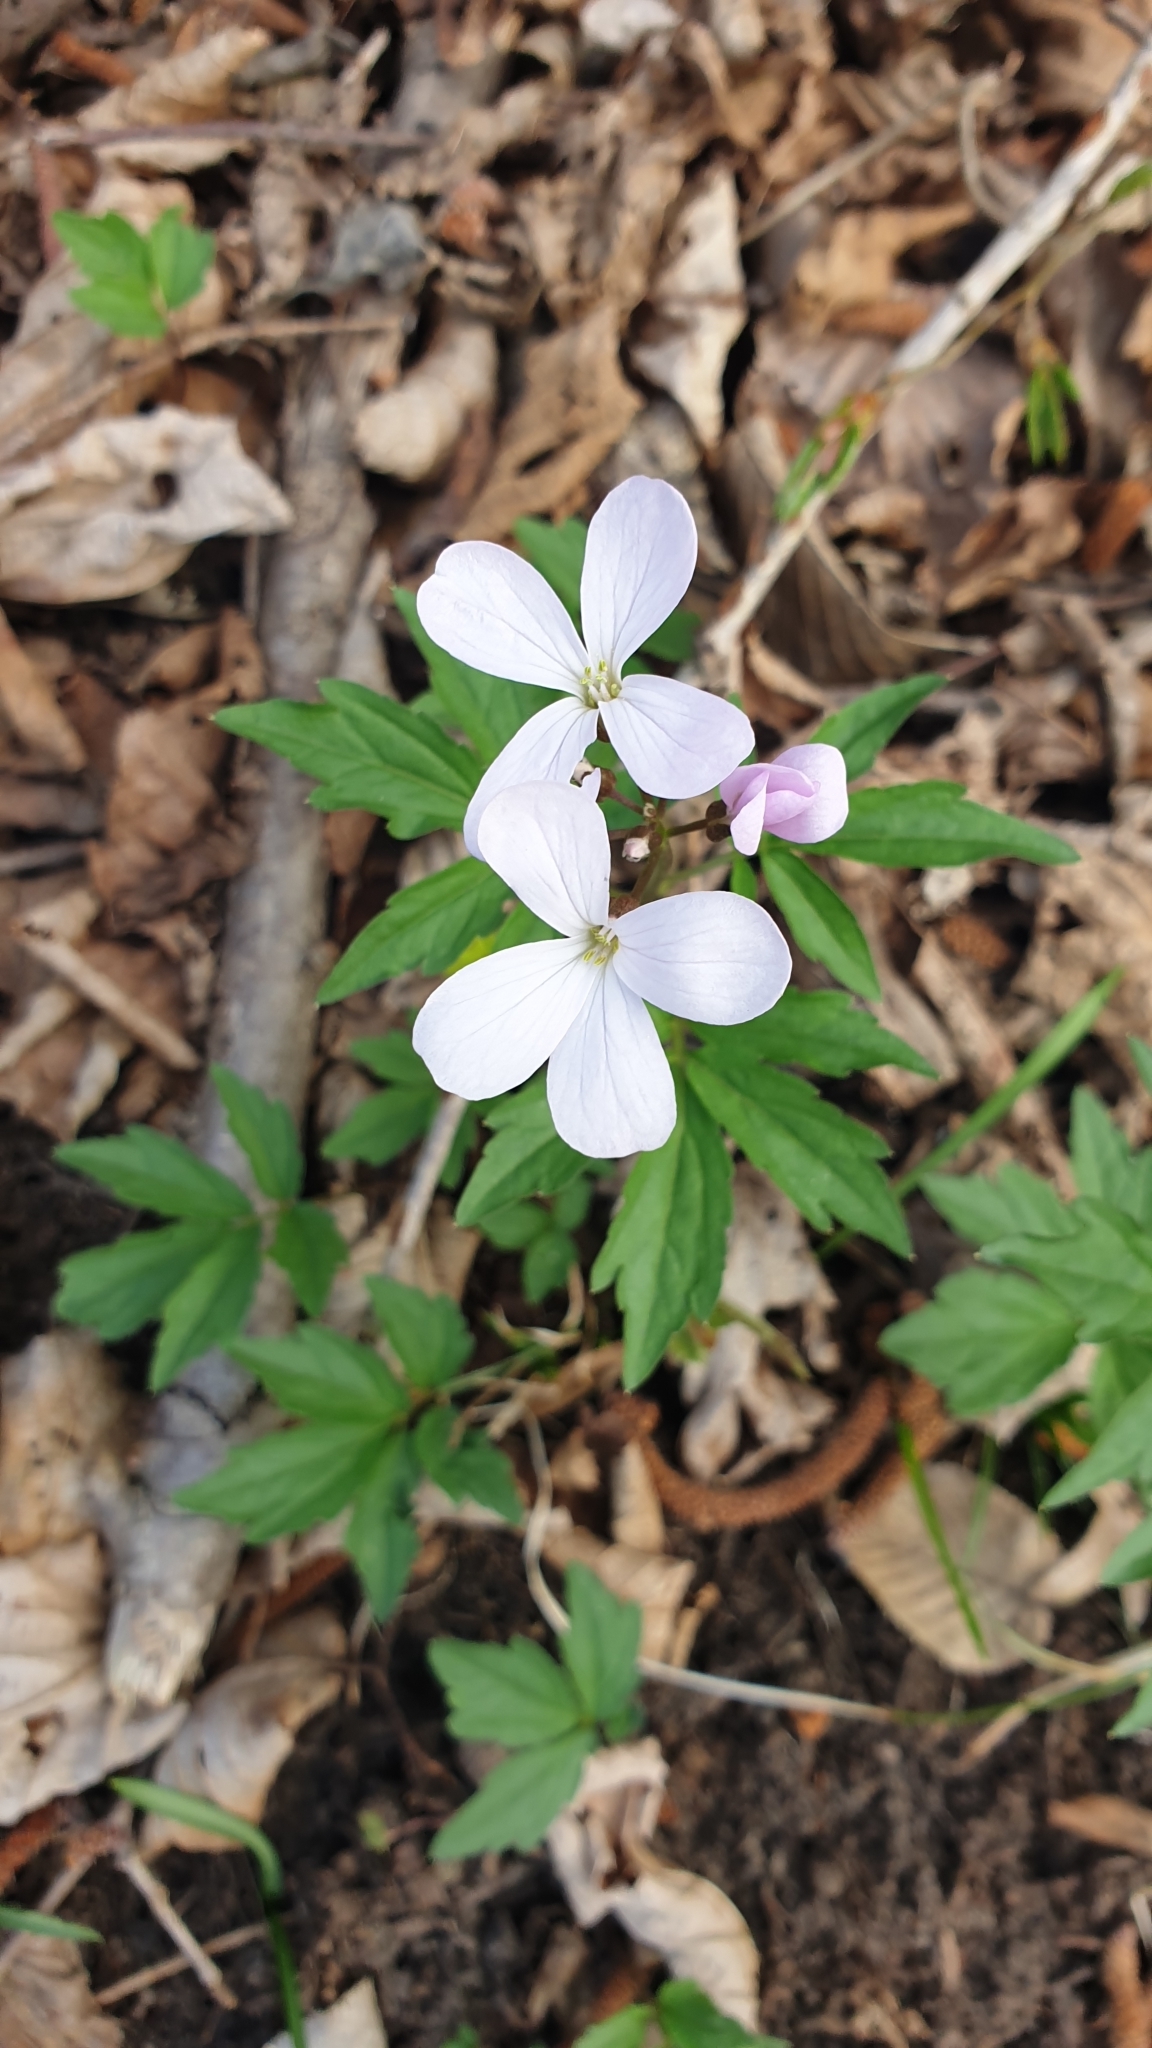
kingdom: Plantae
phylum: Tracheophyta
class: Magnoliopsida
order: Brassicales
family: Brassicaceae
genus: Cardamine
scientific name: Cardamine quinquefolia
